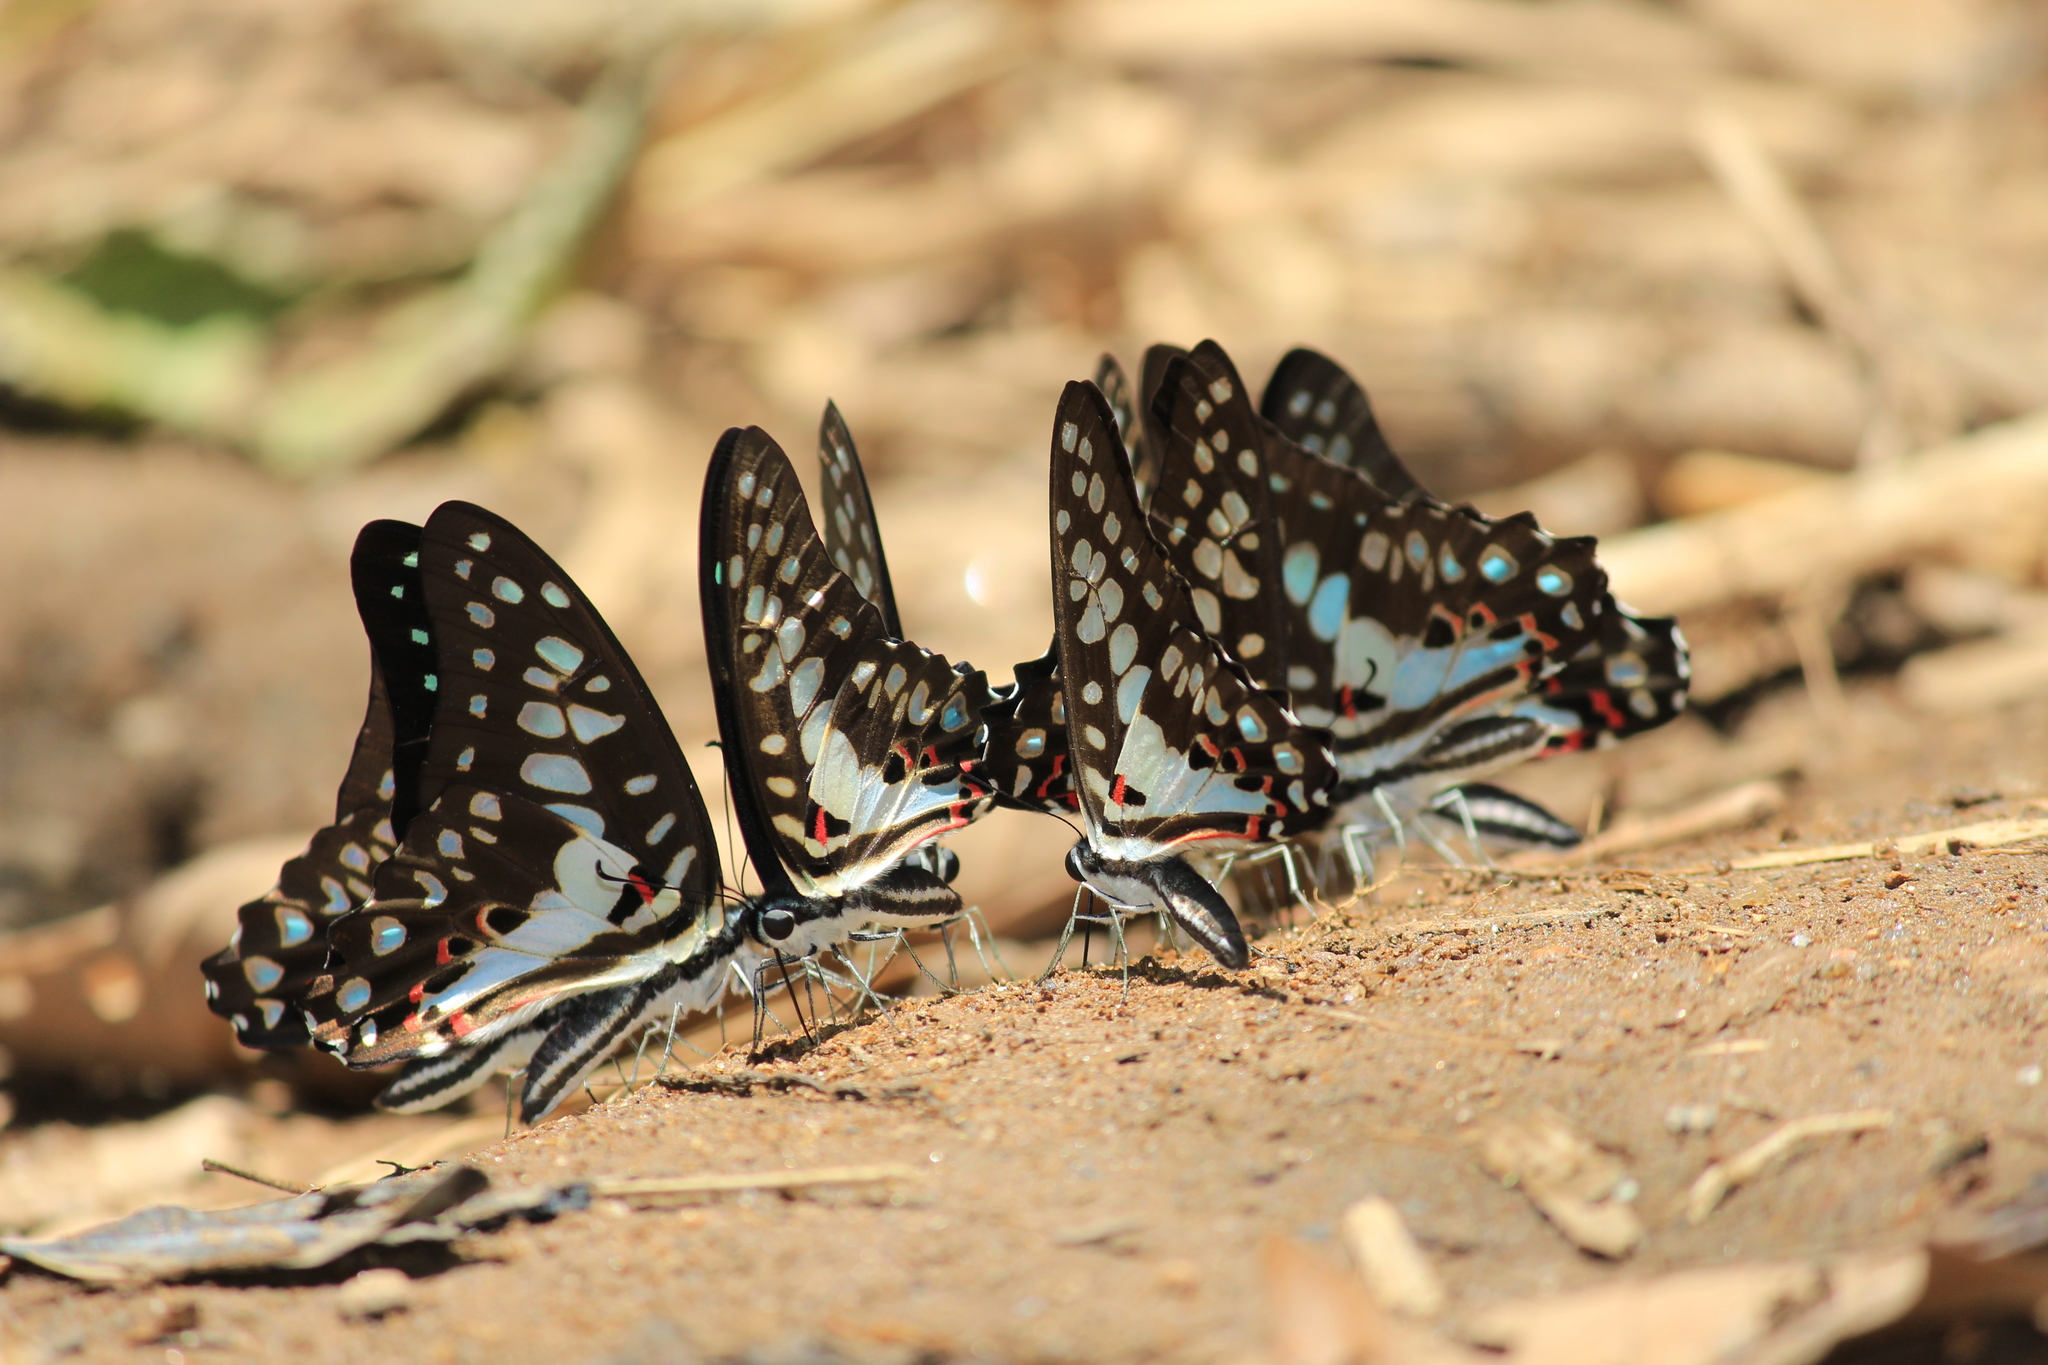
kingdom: Animalia
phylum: Arthropoda
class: Insecta
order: Lepidoptera
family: Papilionidae
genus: Graphium
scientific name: Graphium doson
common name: Common jay
